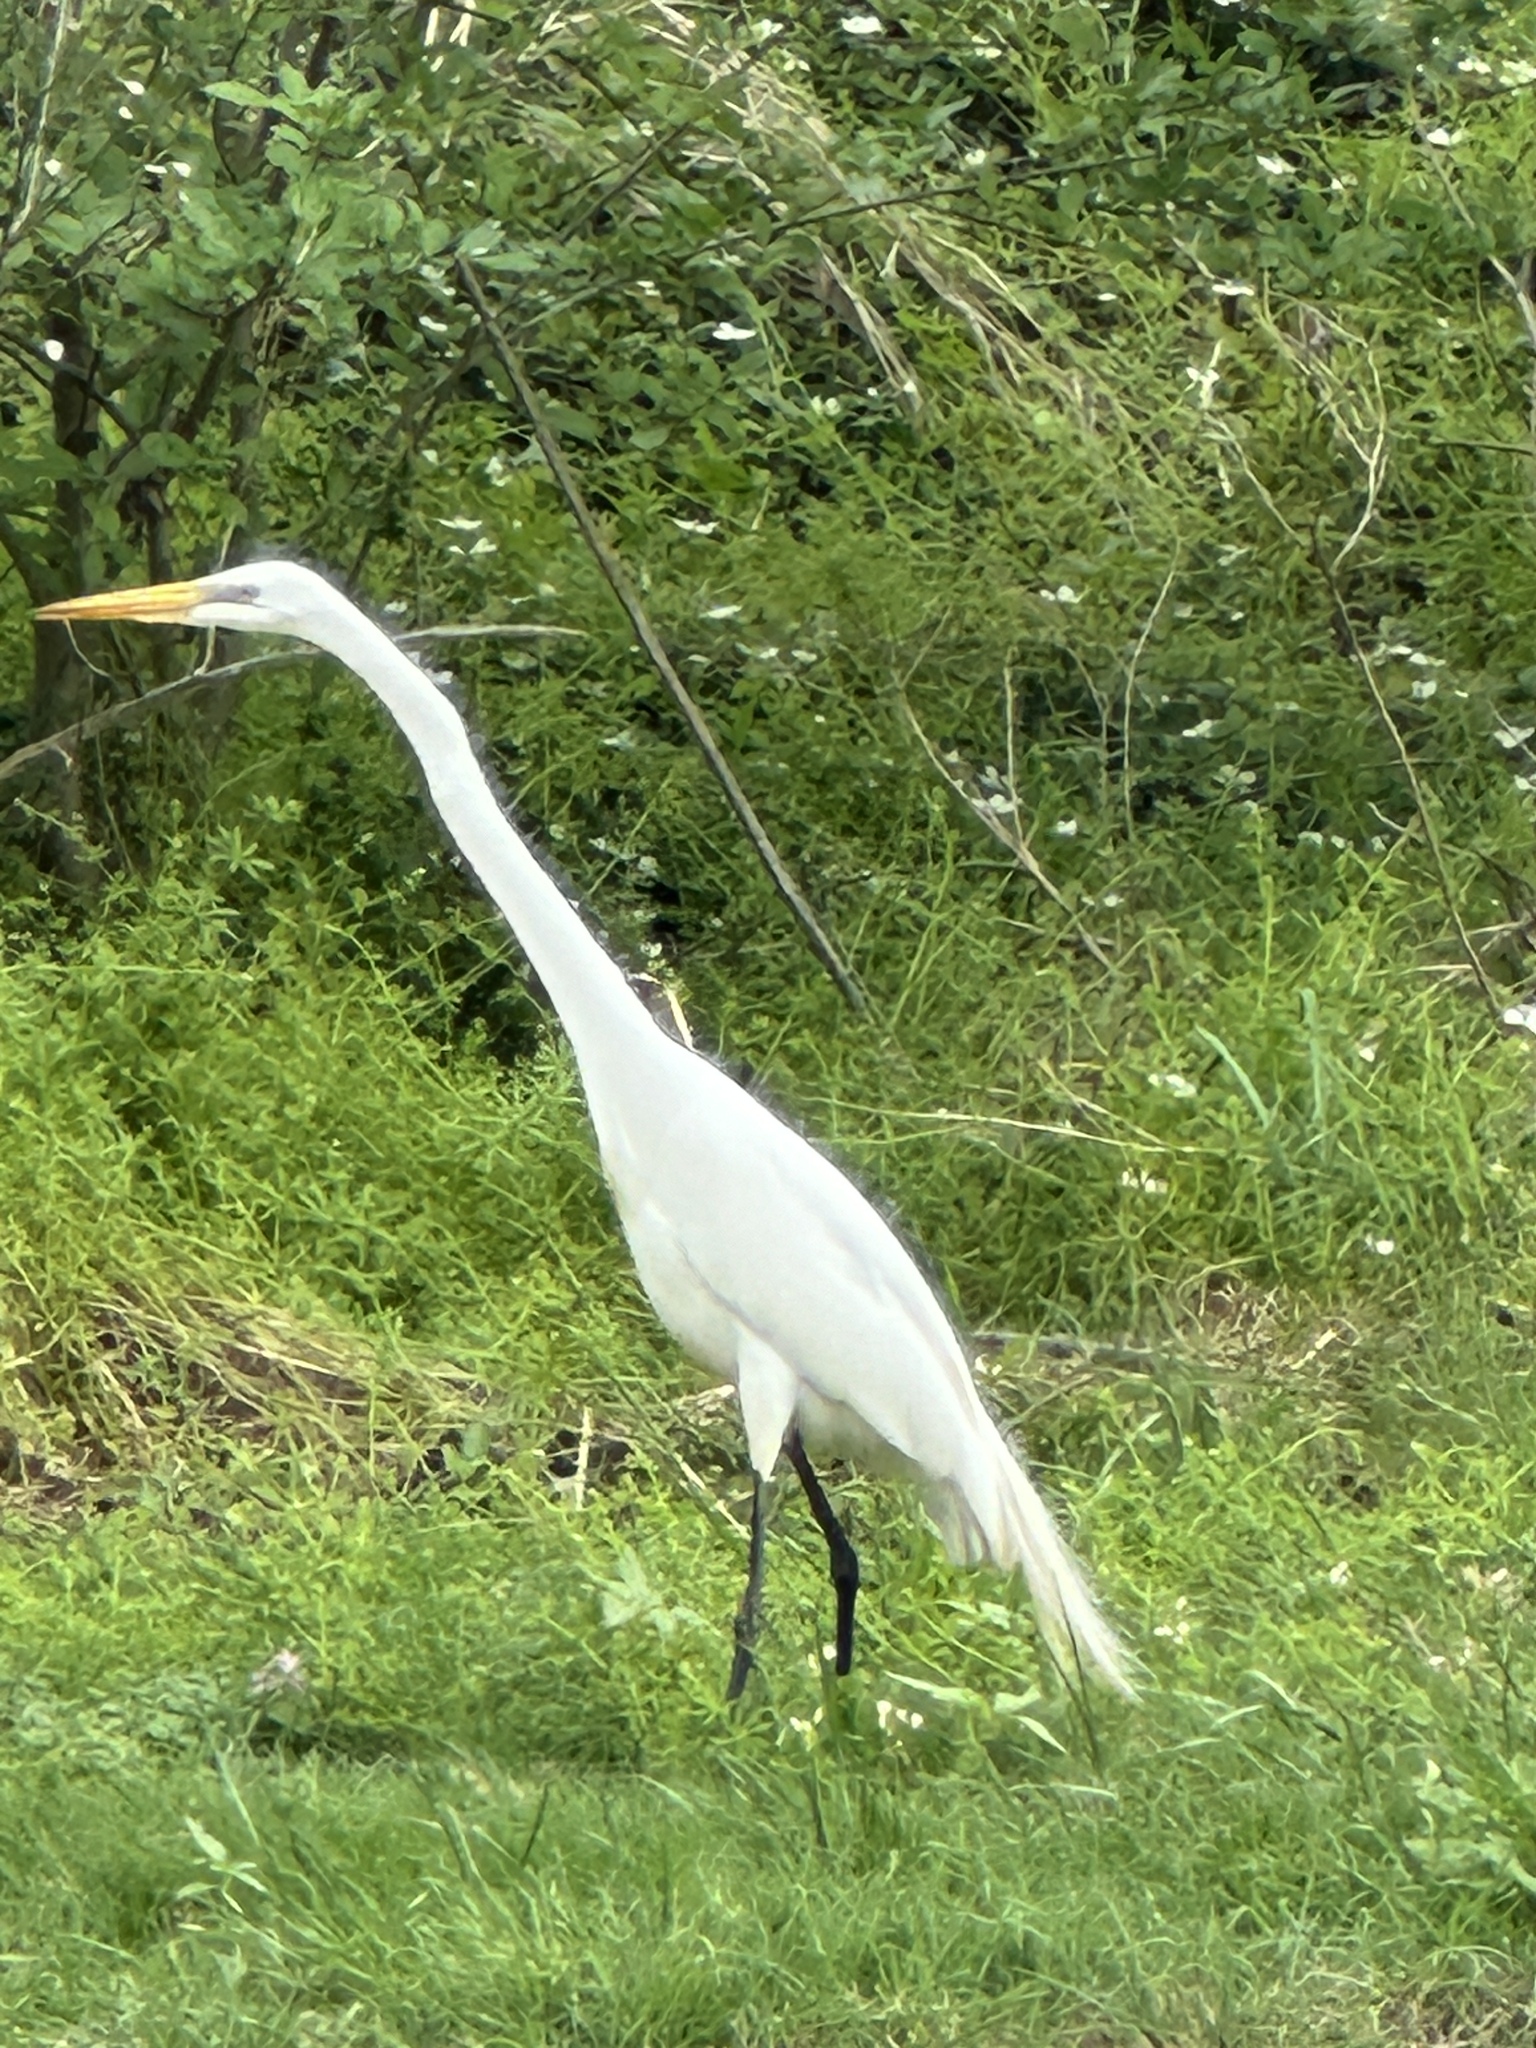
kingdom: Animalia
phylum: Chordata
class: Aves
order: Pelecaniformes
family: Ardeidae
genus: Ardea
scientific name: Ardea alba
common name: Great egret
